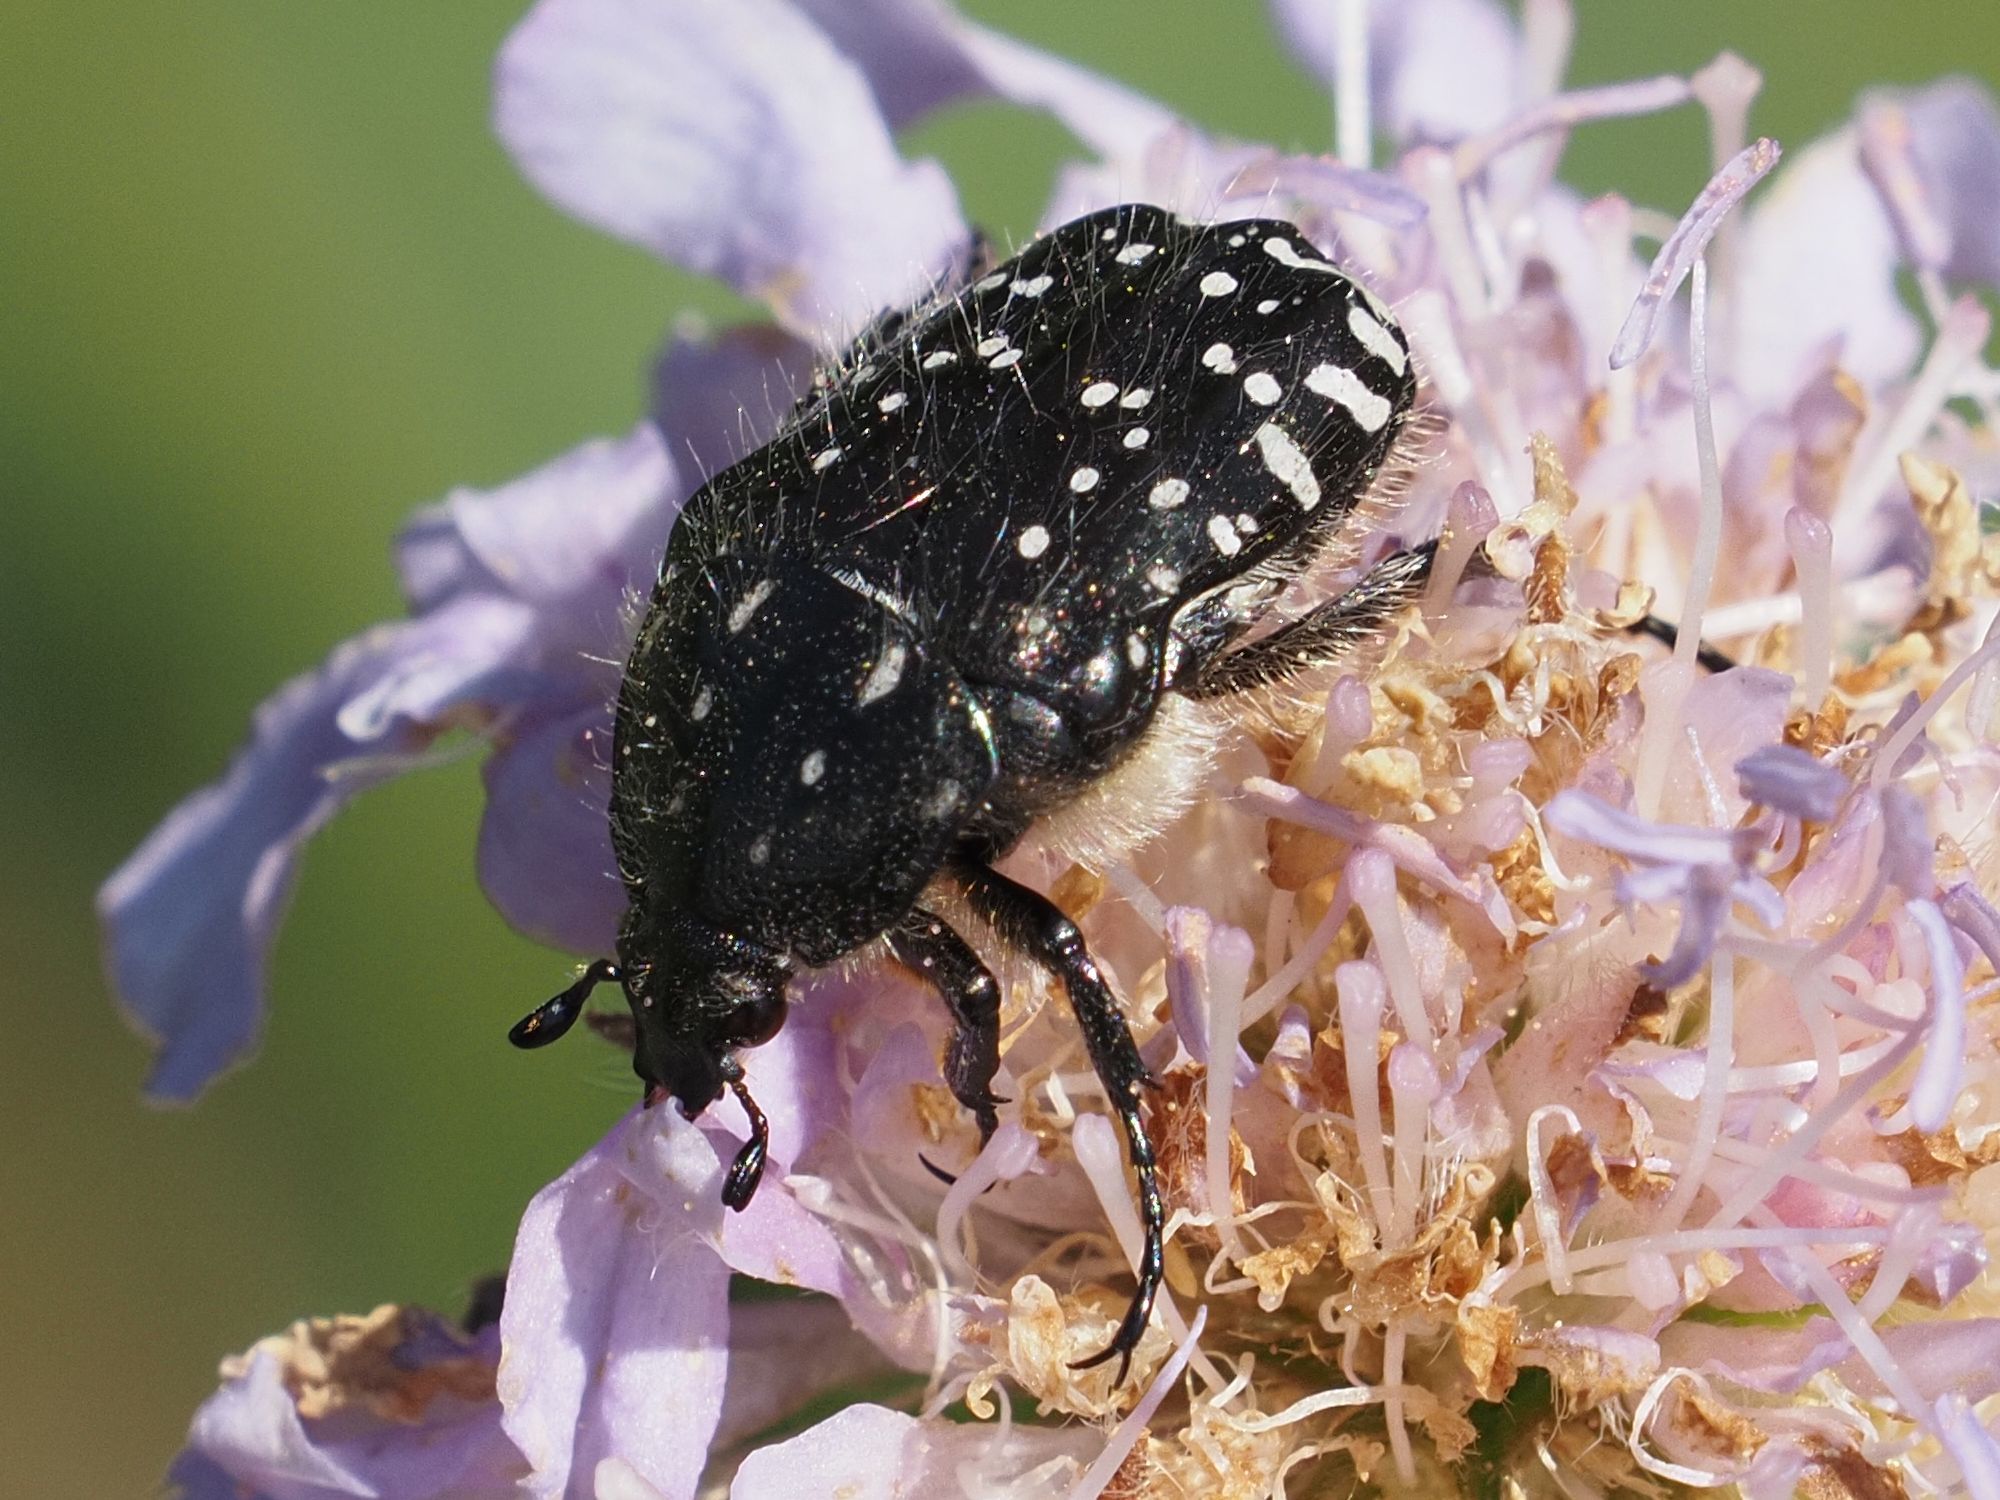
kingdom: Animalia
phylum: Arthropoda
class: Insecta
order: Coleoptera
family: Scarabaeidae
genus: Oxythyrea
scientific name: Oxythyrea funesta
